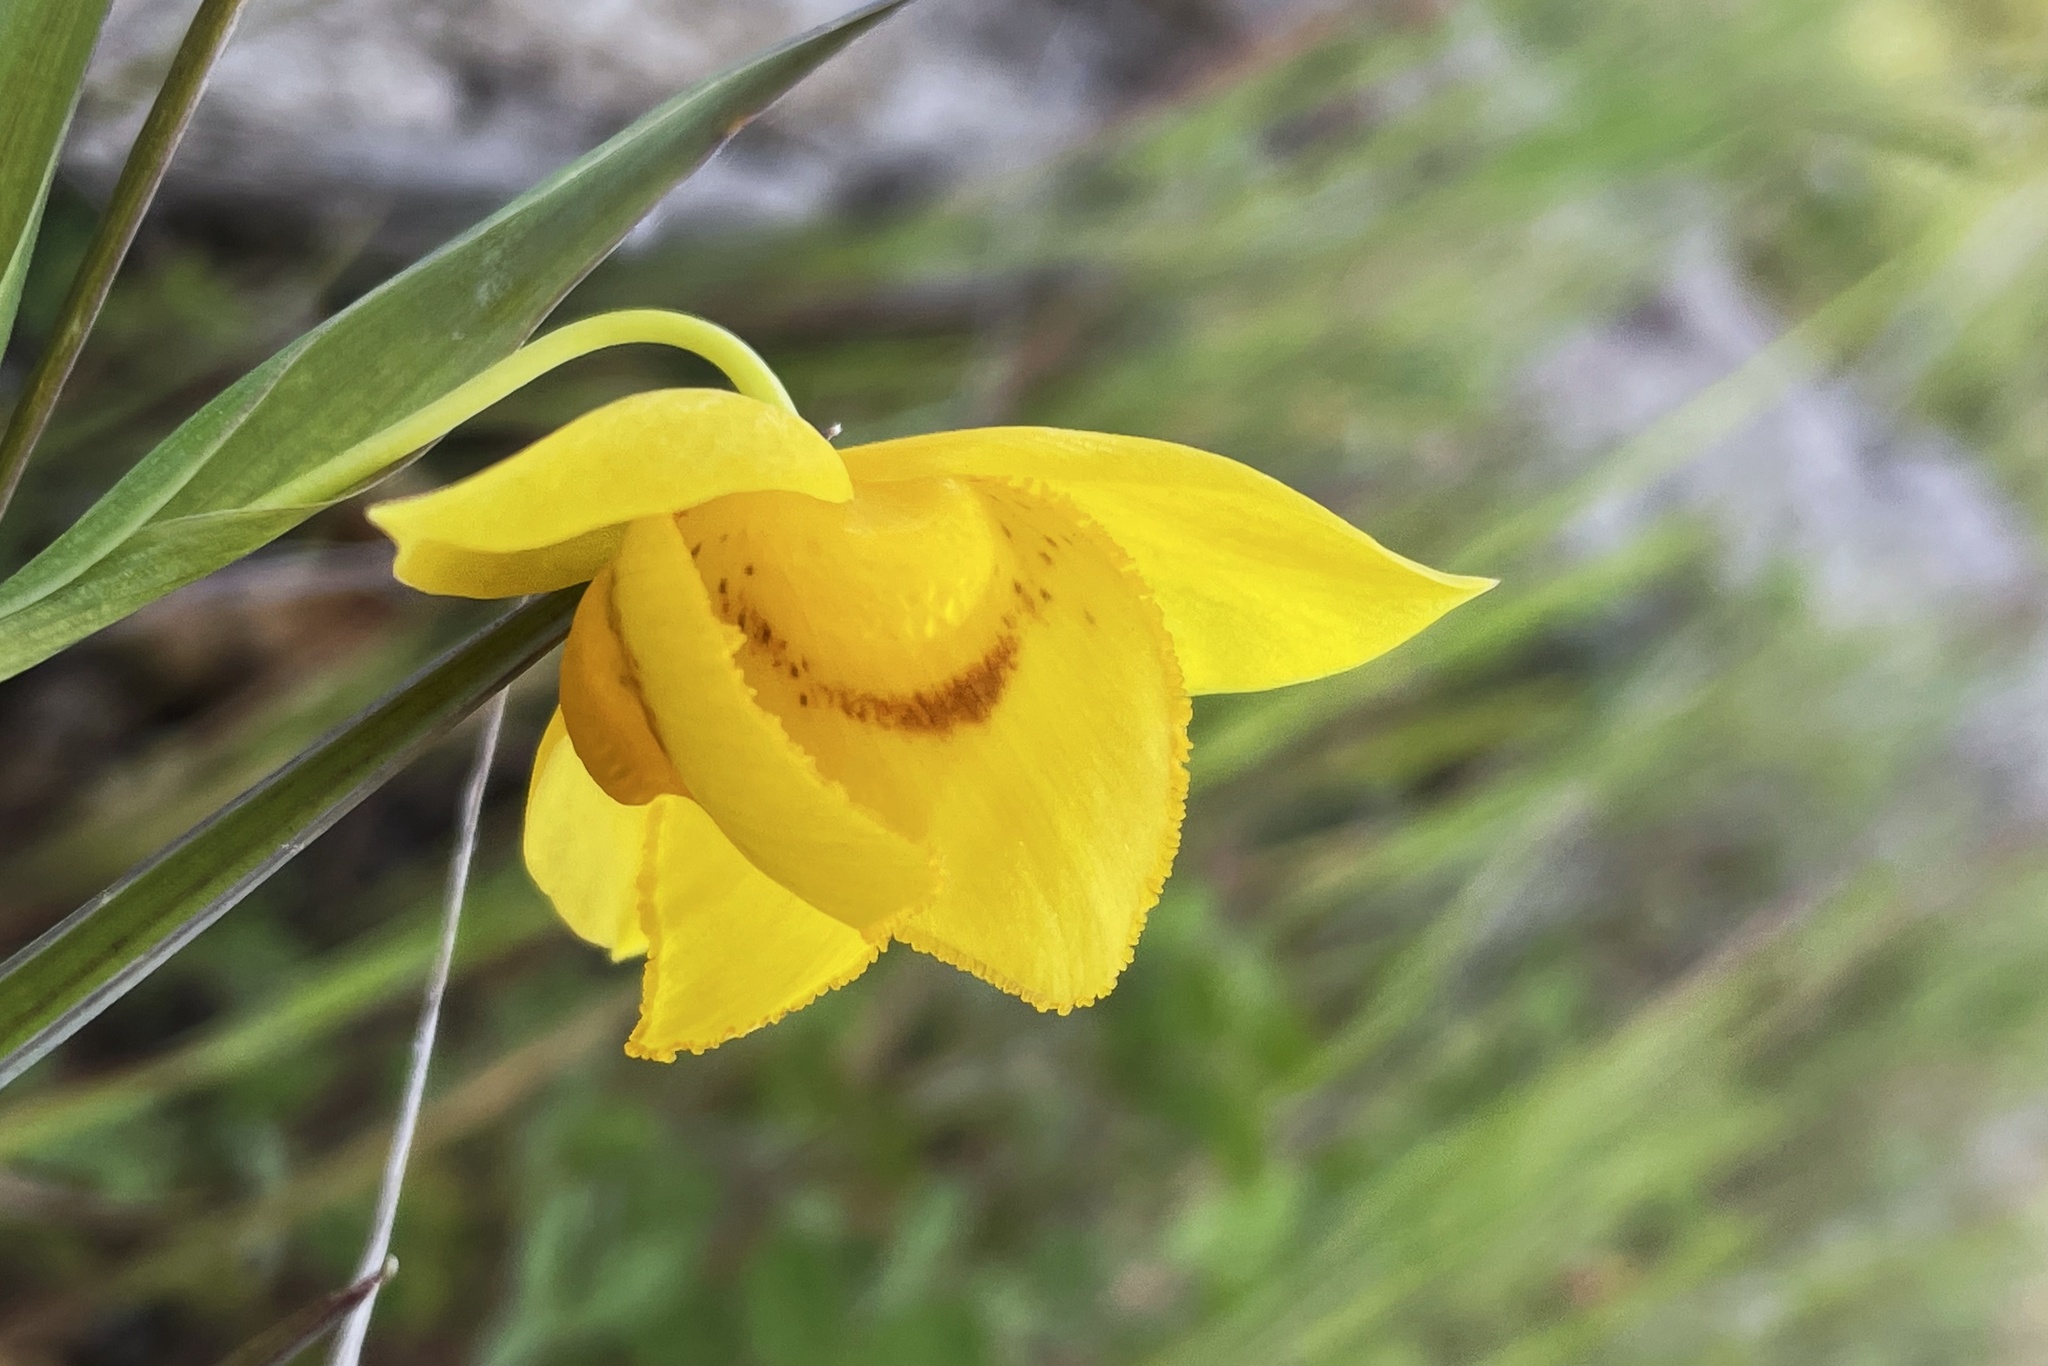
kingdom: Plantae
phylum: Tracheophyta
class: Liliopsida
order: Liliales
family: Liliaceae
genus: Calochortus
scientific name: Calochortus amabilis
